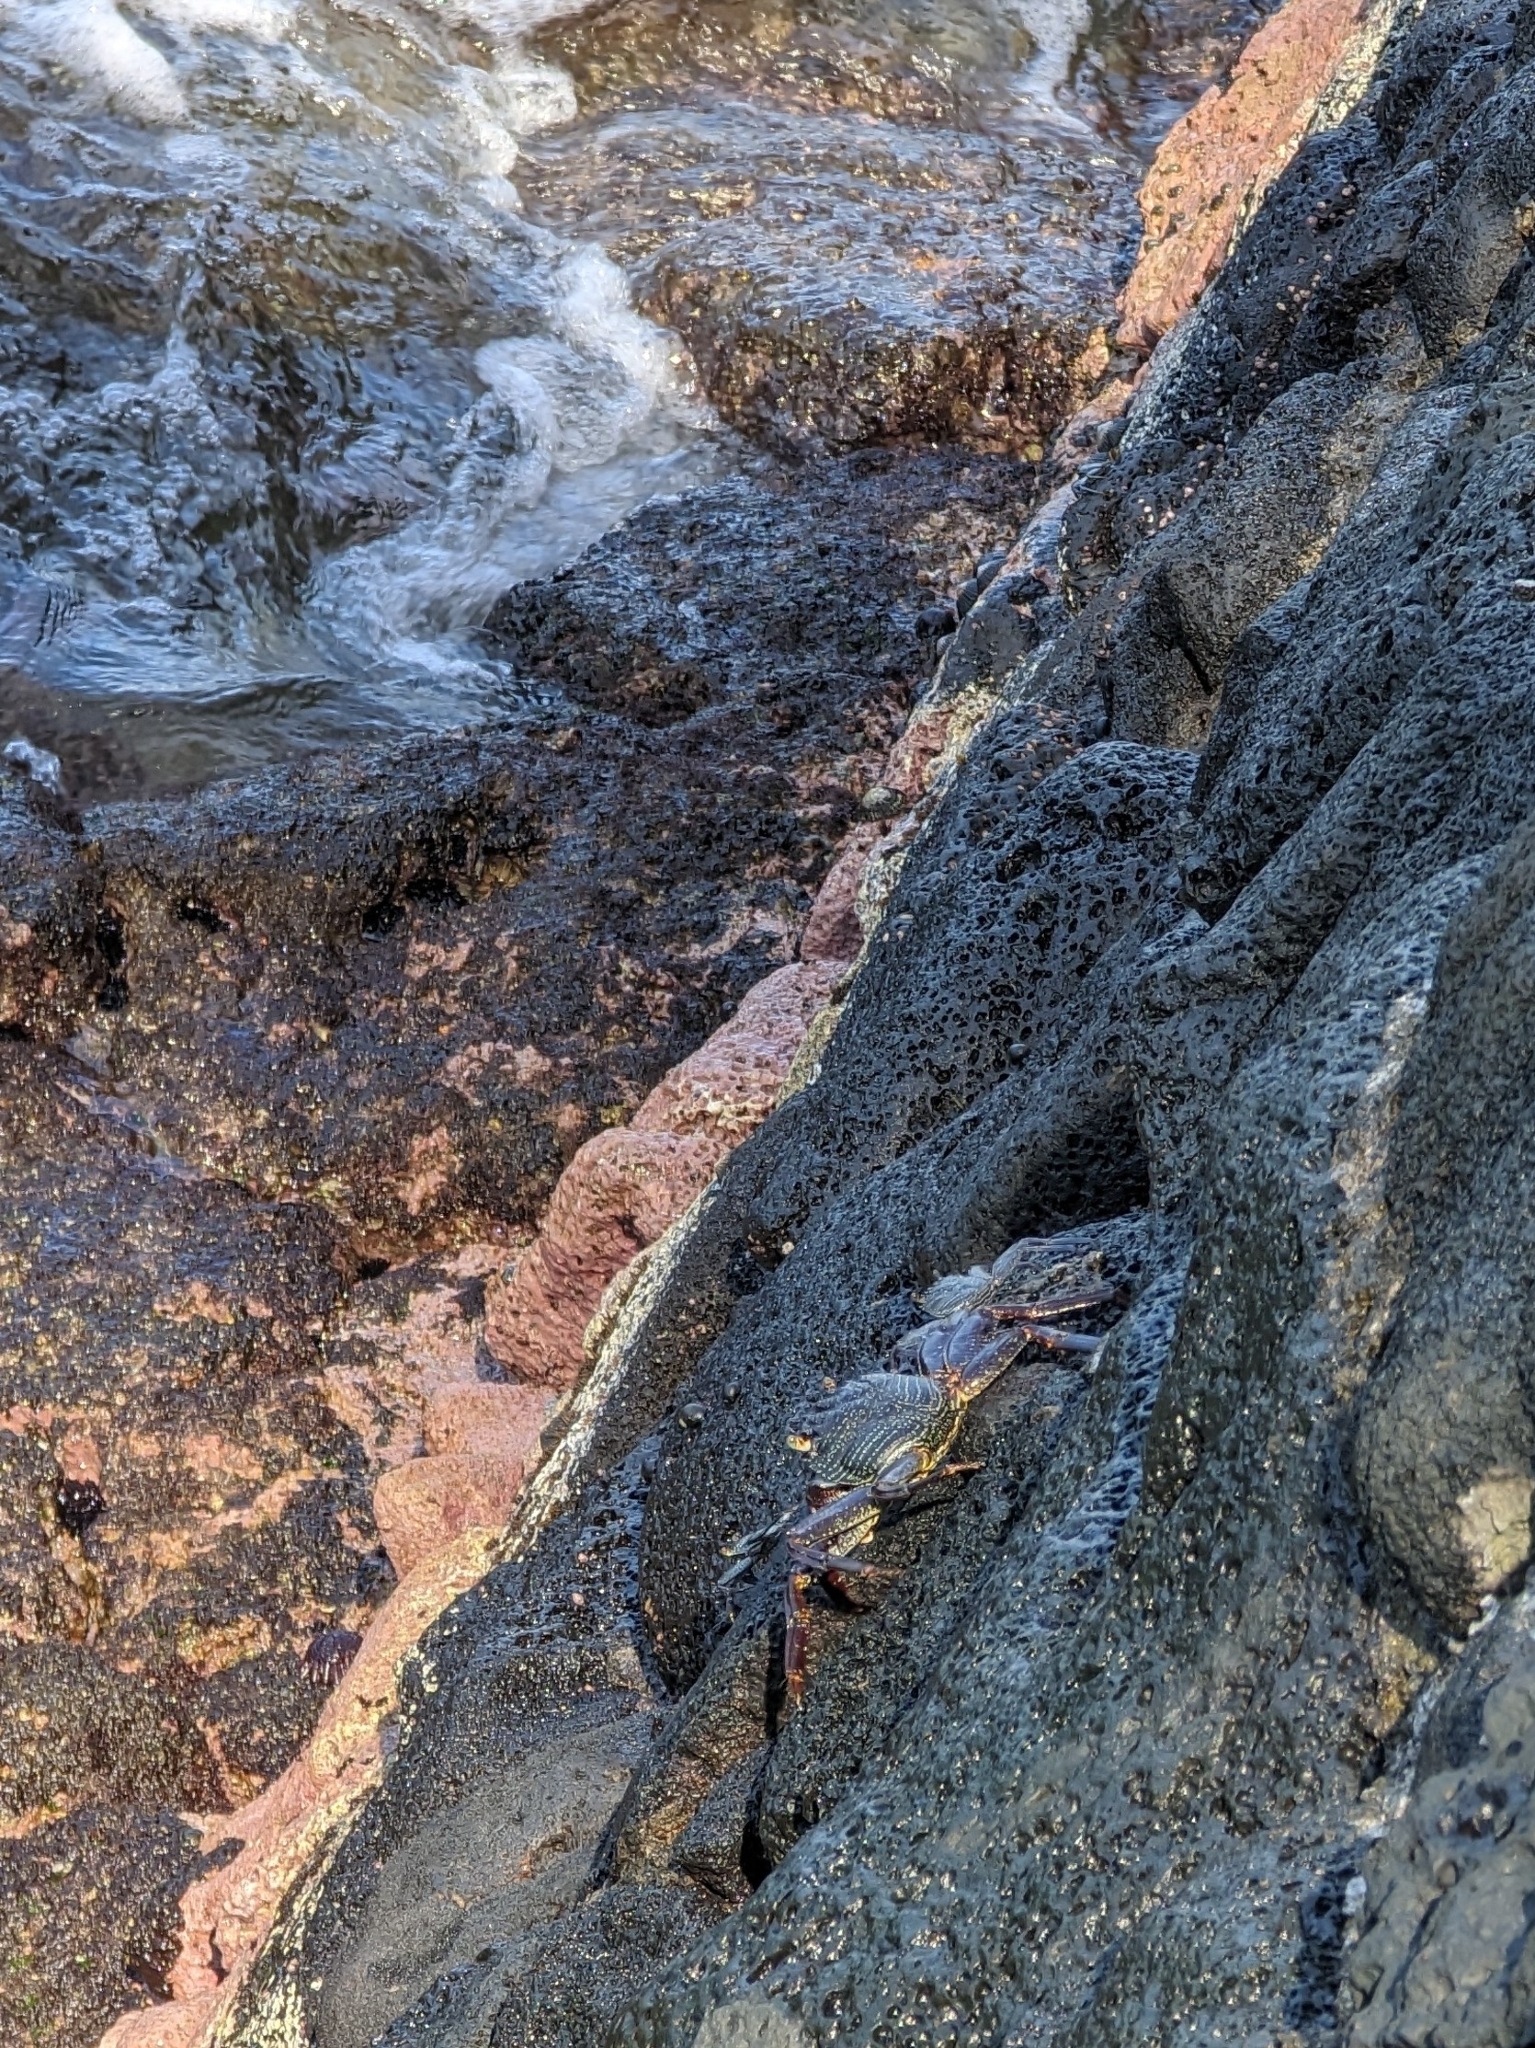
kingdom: Animalia
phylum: Arthropoda
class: Malacostraca
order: Decapoda
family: Grapsidae
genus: Grapsus
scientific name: Grapsus tenuicrustatus
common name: Natal lightfoot crab
